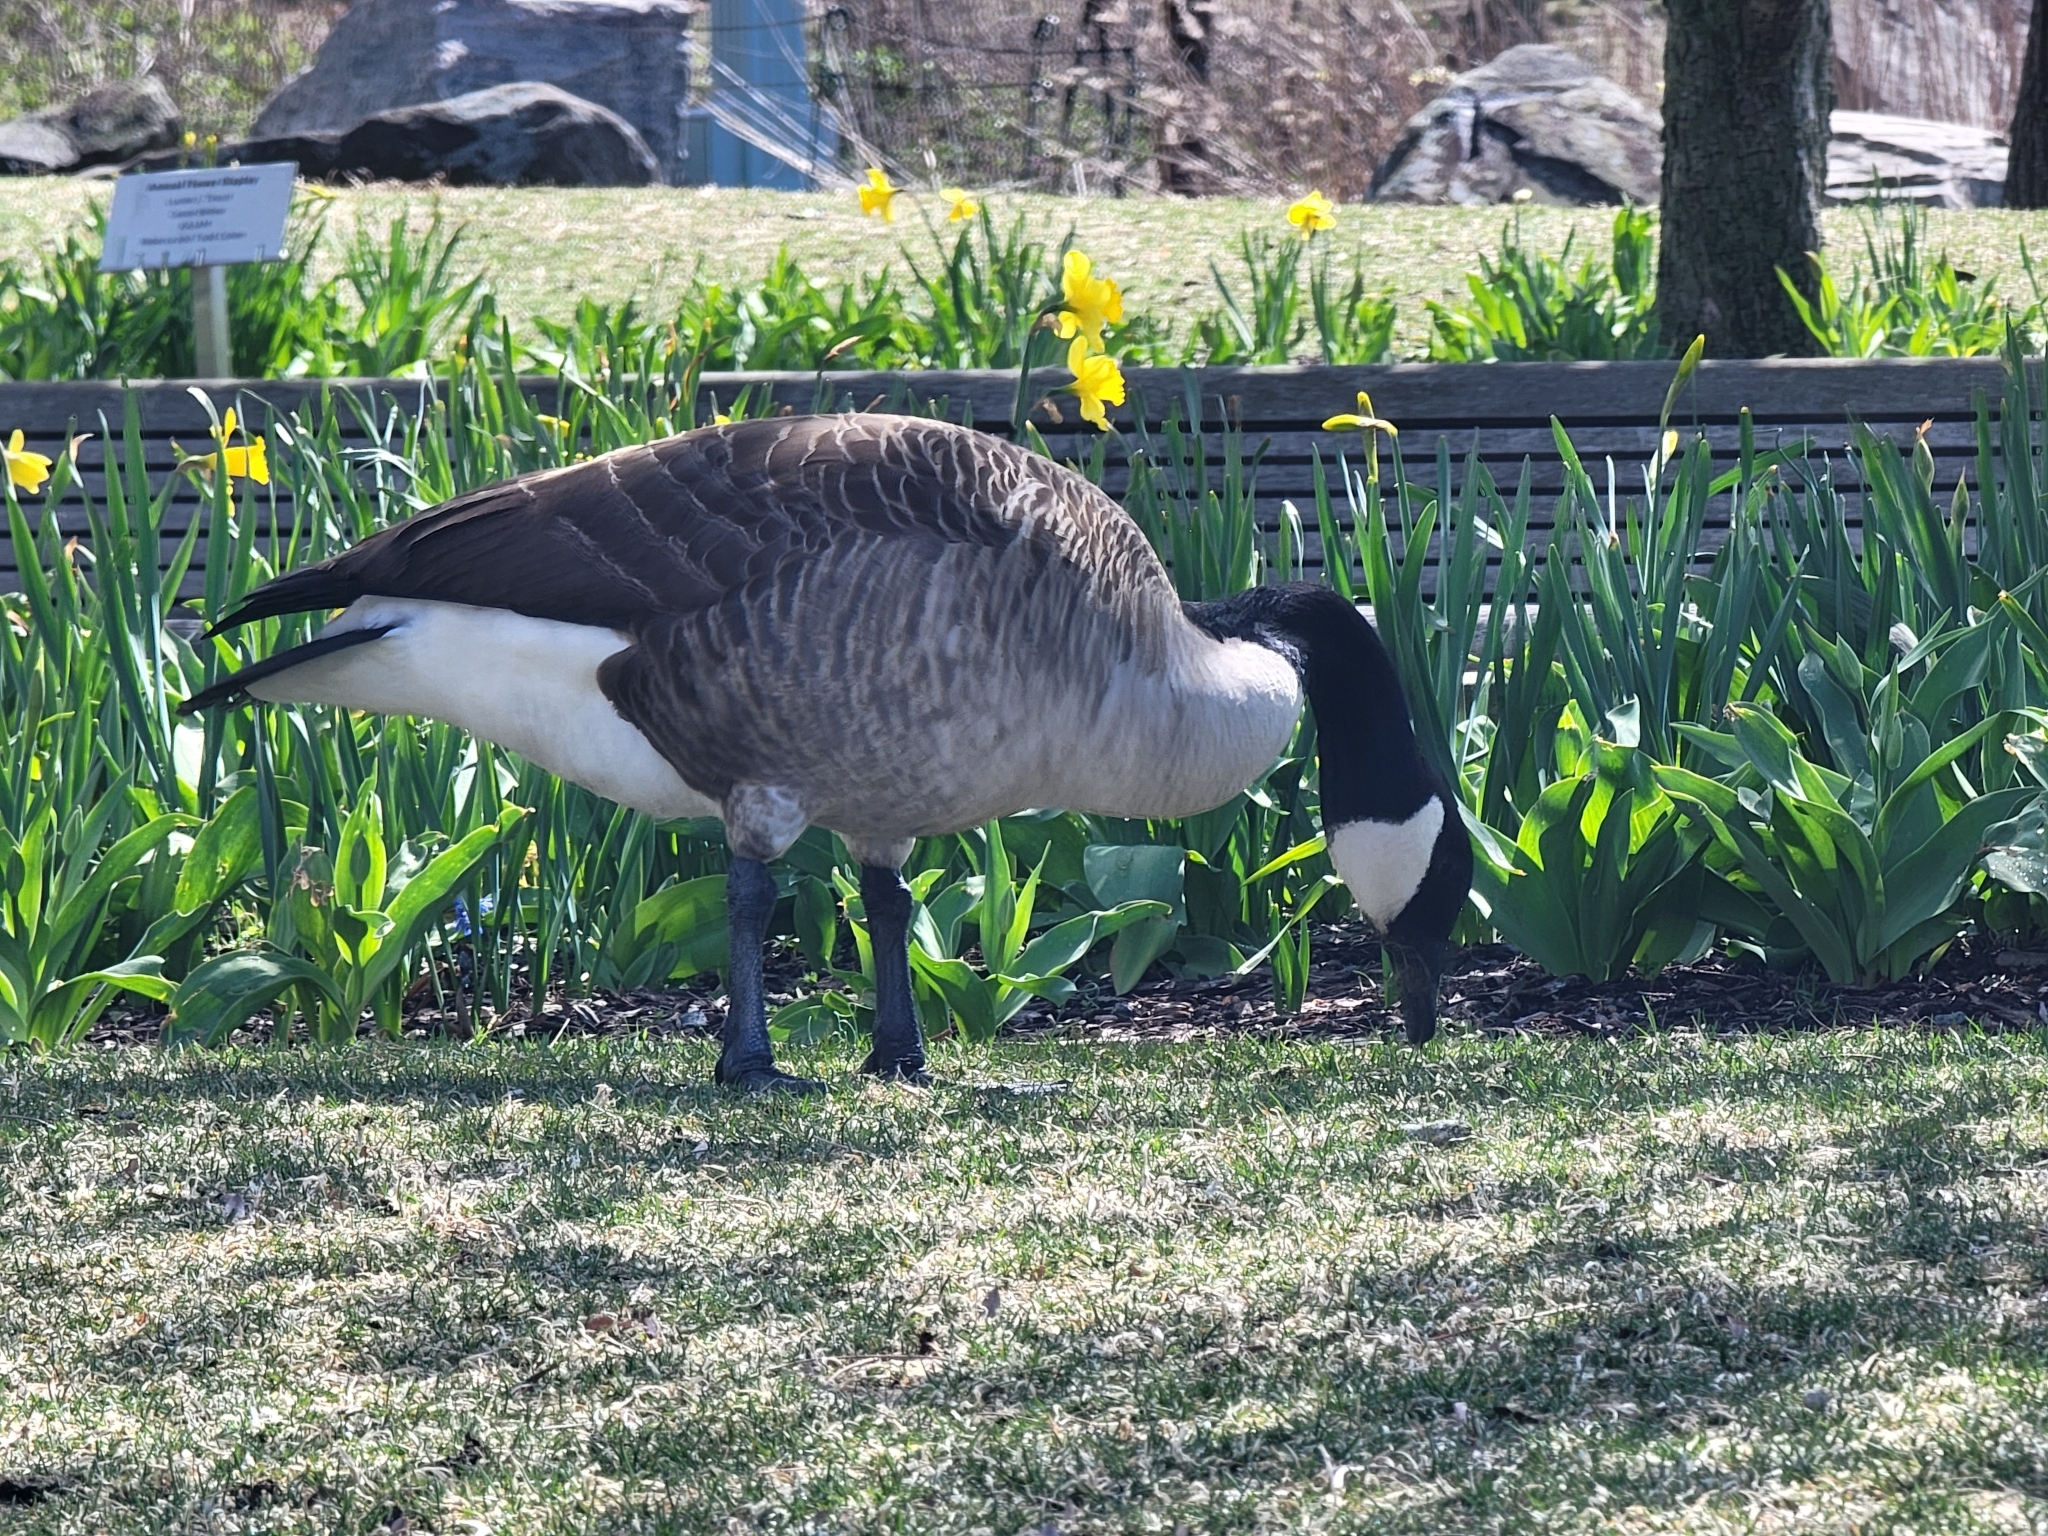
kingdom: Animalia
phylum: Chordata
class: Aves
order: Anseriformes
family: Anatidae
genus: Branta
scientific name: Branta canadensis
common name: Canada goose
